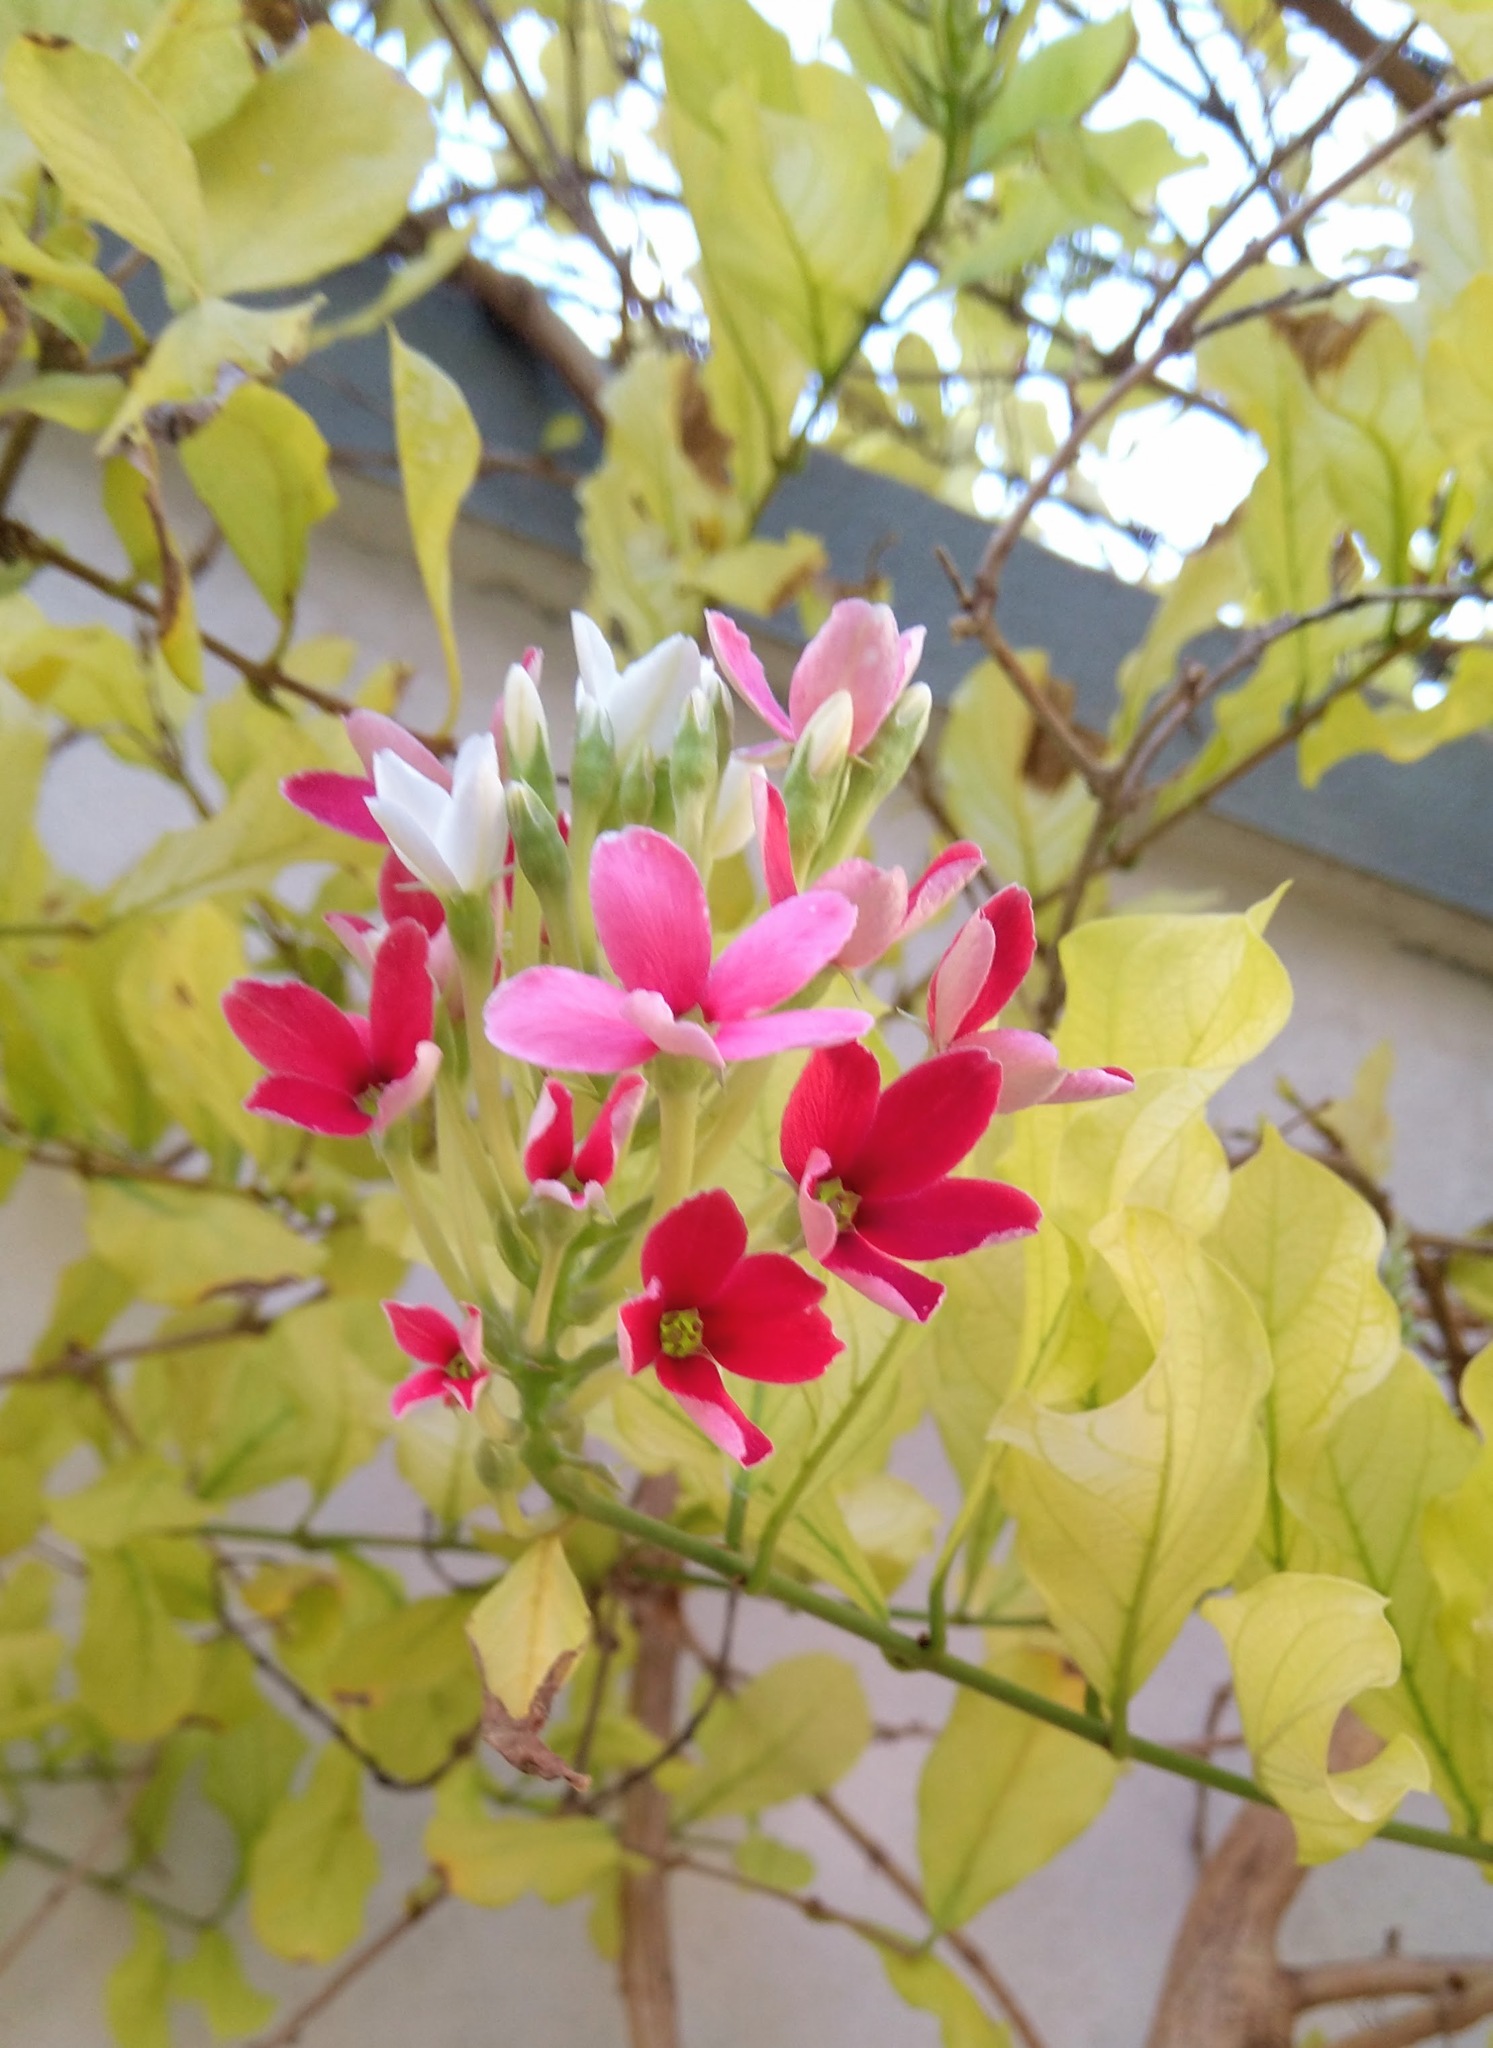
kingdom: Plantae
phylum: Tracheophyta
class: Magnoliopsida
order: Myrtales
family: Combretaceae
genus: Combretum
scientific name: Combretum indicum
